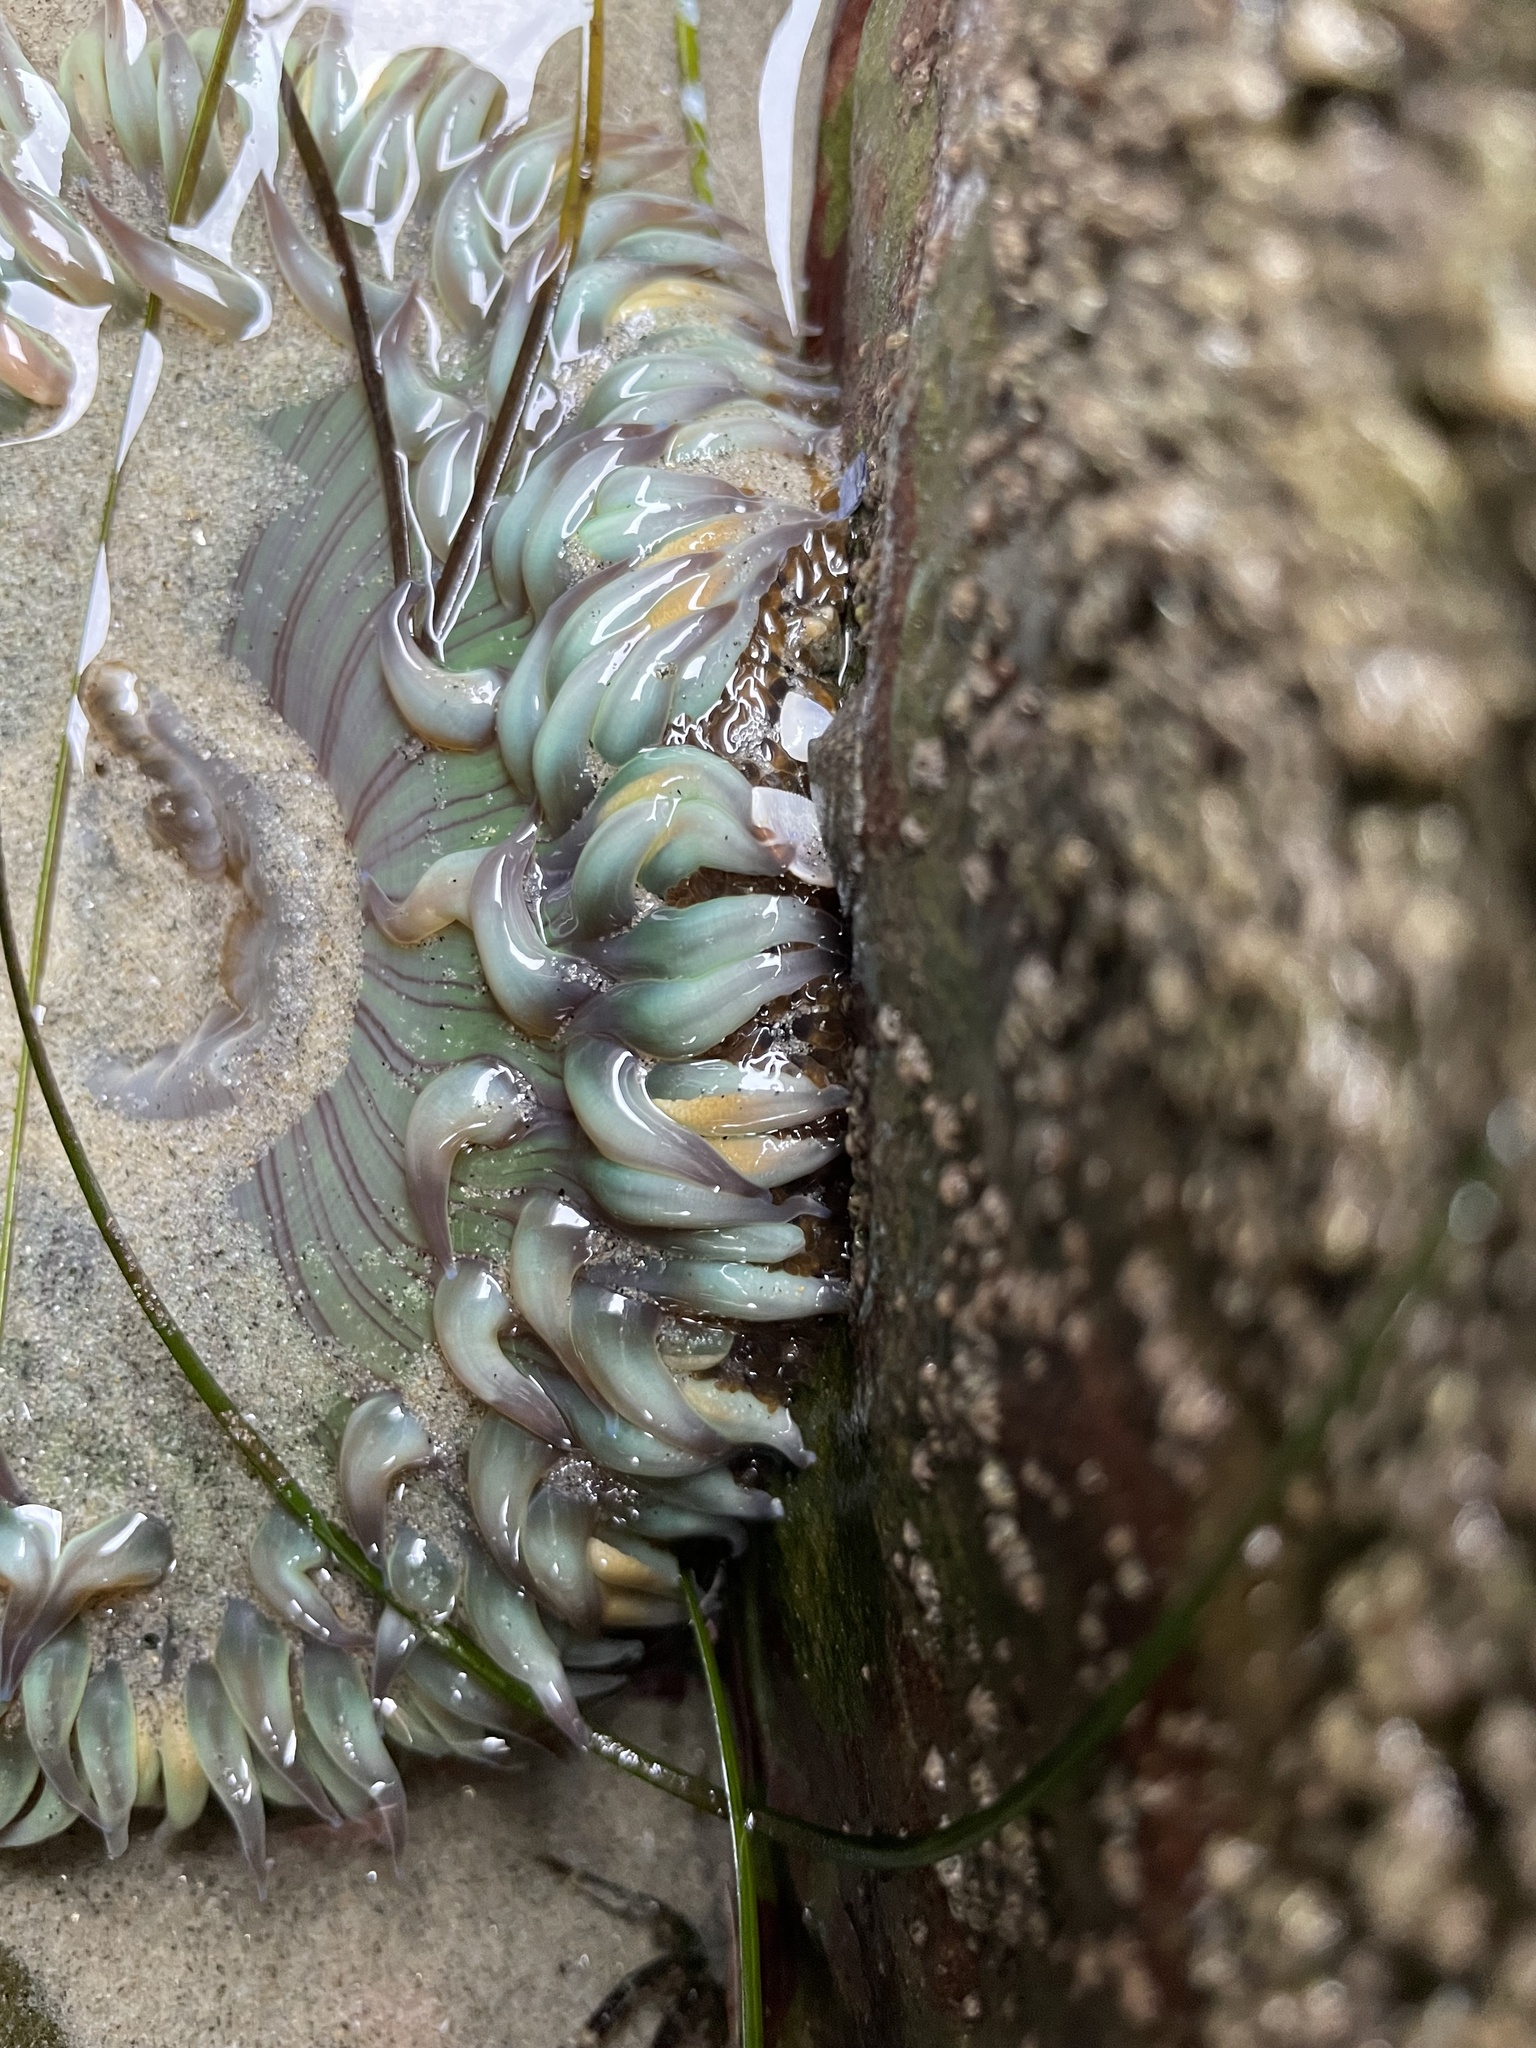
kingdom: Animalia
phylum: Cnidaria
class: Anthozoa
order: Actiniaria
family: Actiniidae
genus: Anthopleura
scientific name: Anthopleura sola
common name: Sun anemone
